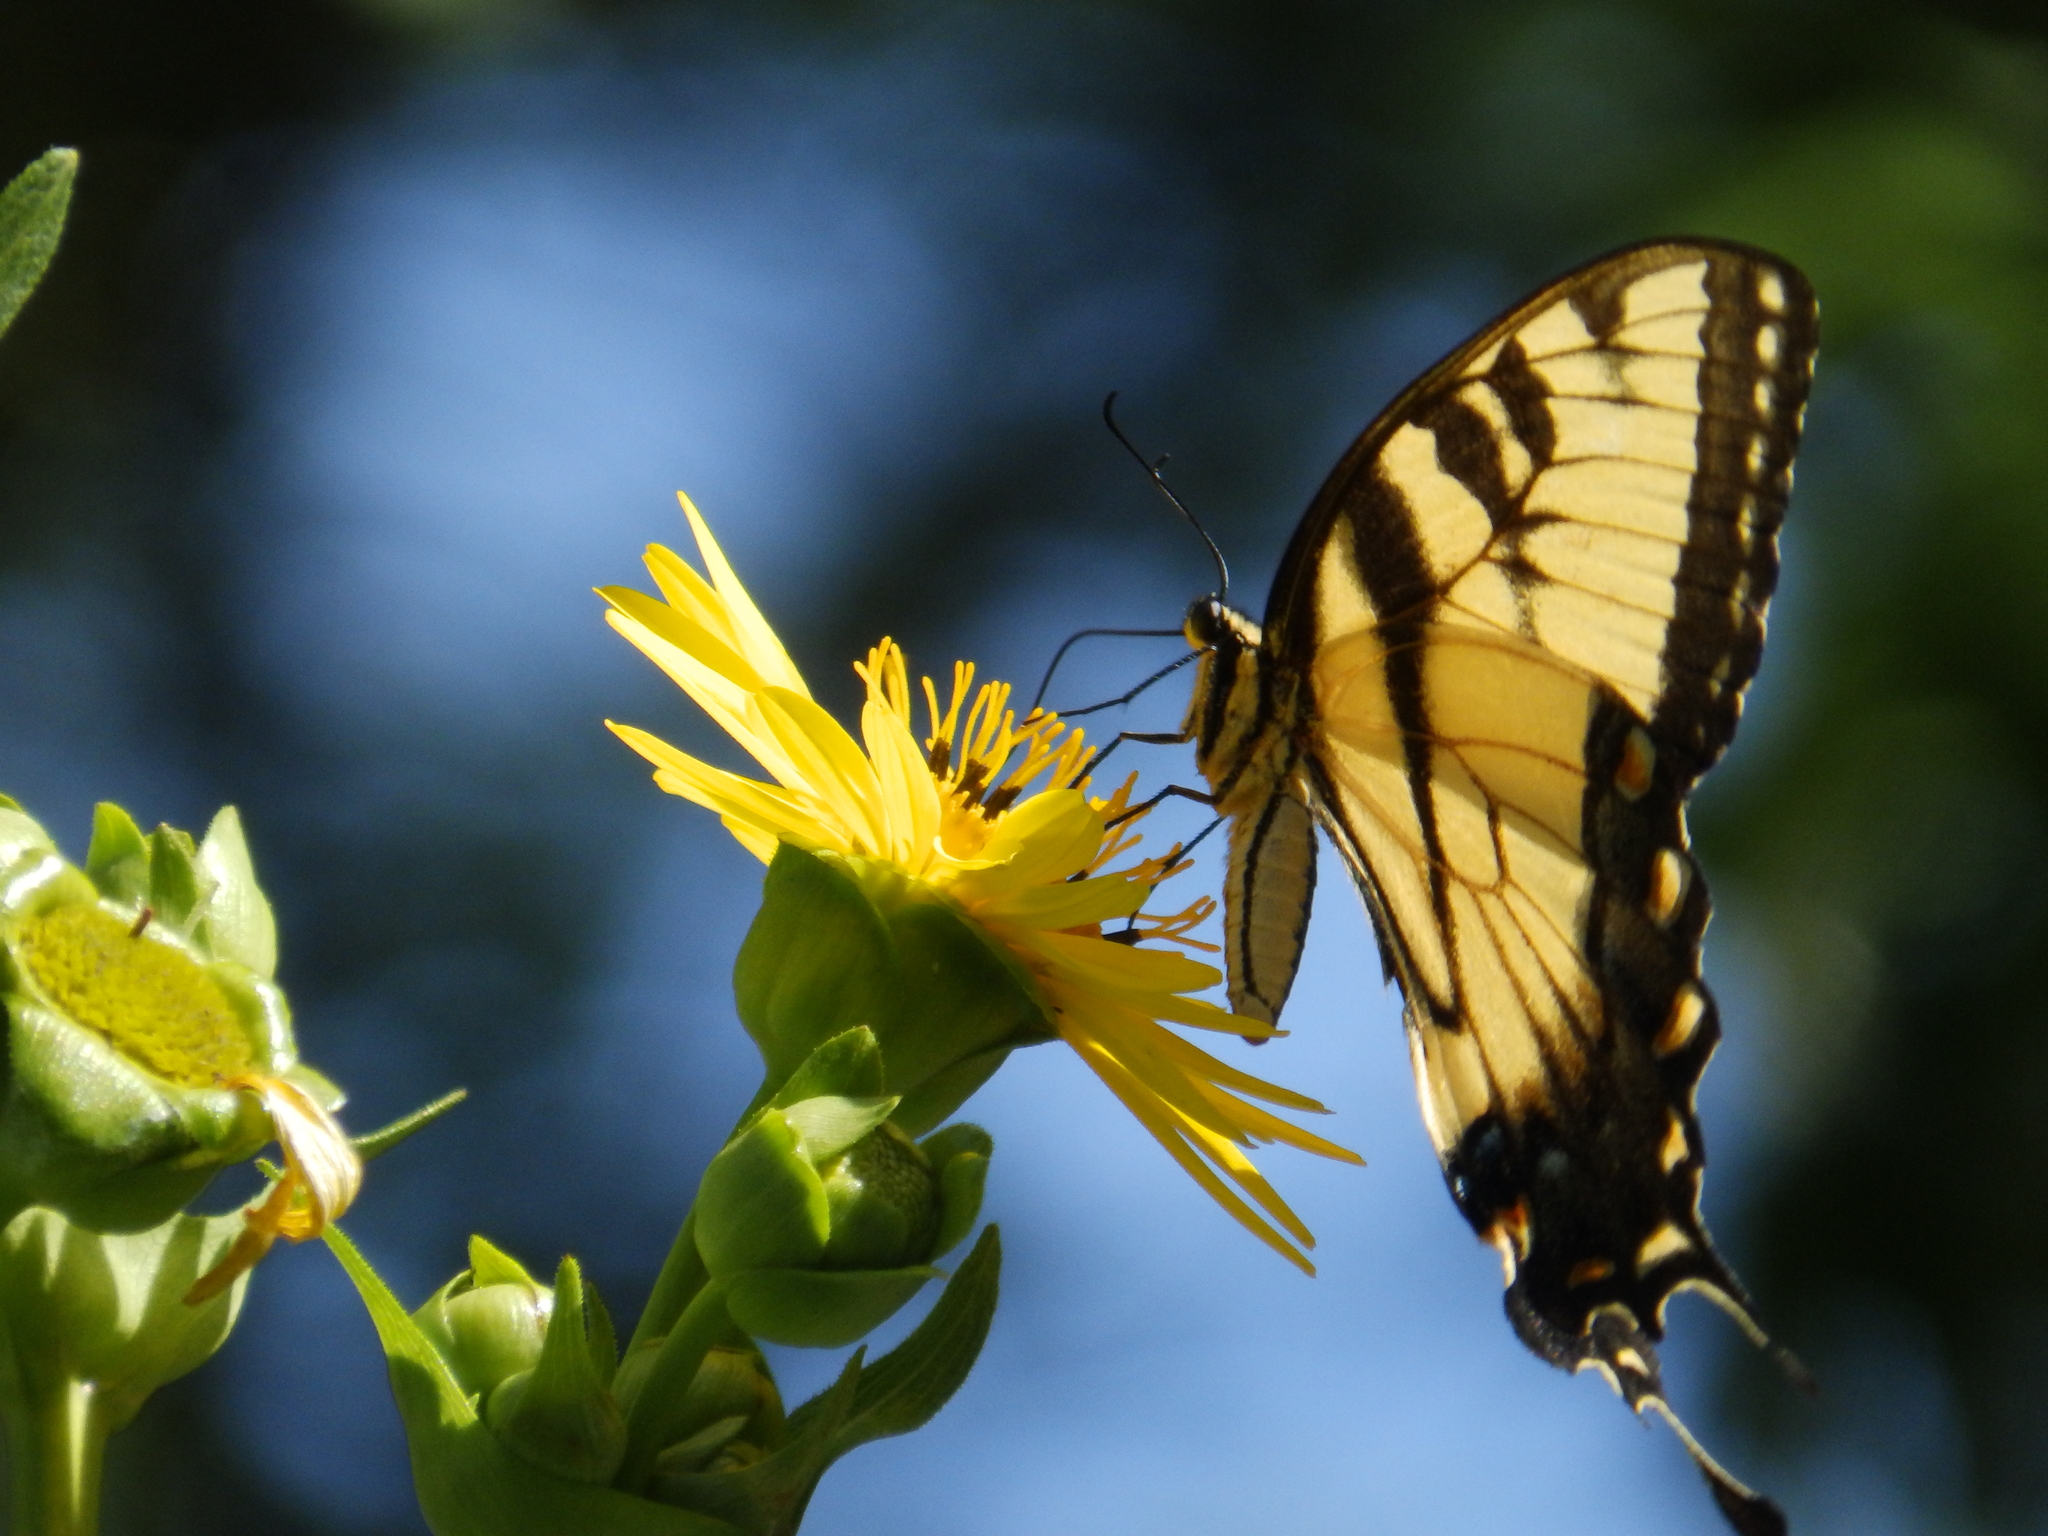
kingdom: Animalia
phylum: Arthropoda
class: Insecta
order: Lepidoptera
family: Papilionidae
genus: Papilio
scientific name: Papilio glaucus
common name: Tiger swallowtail
